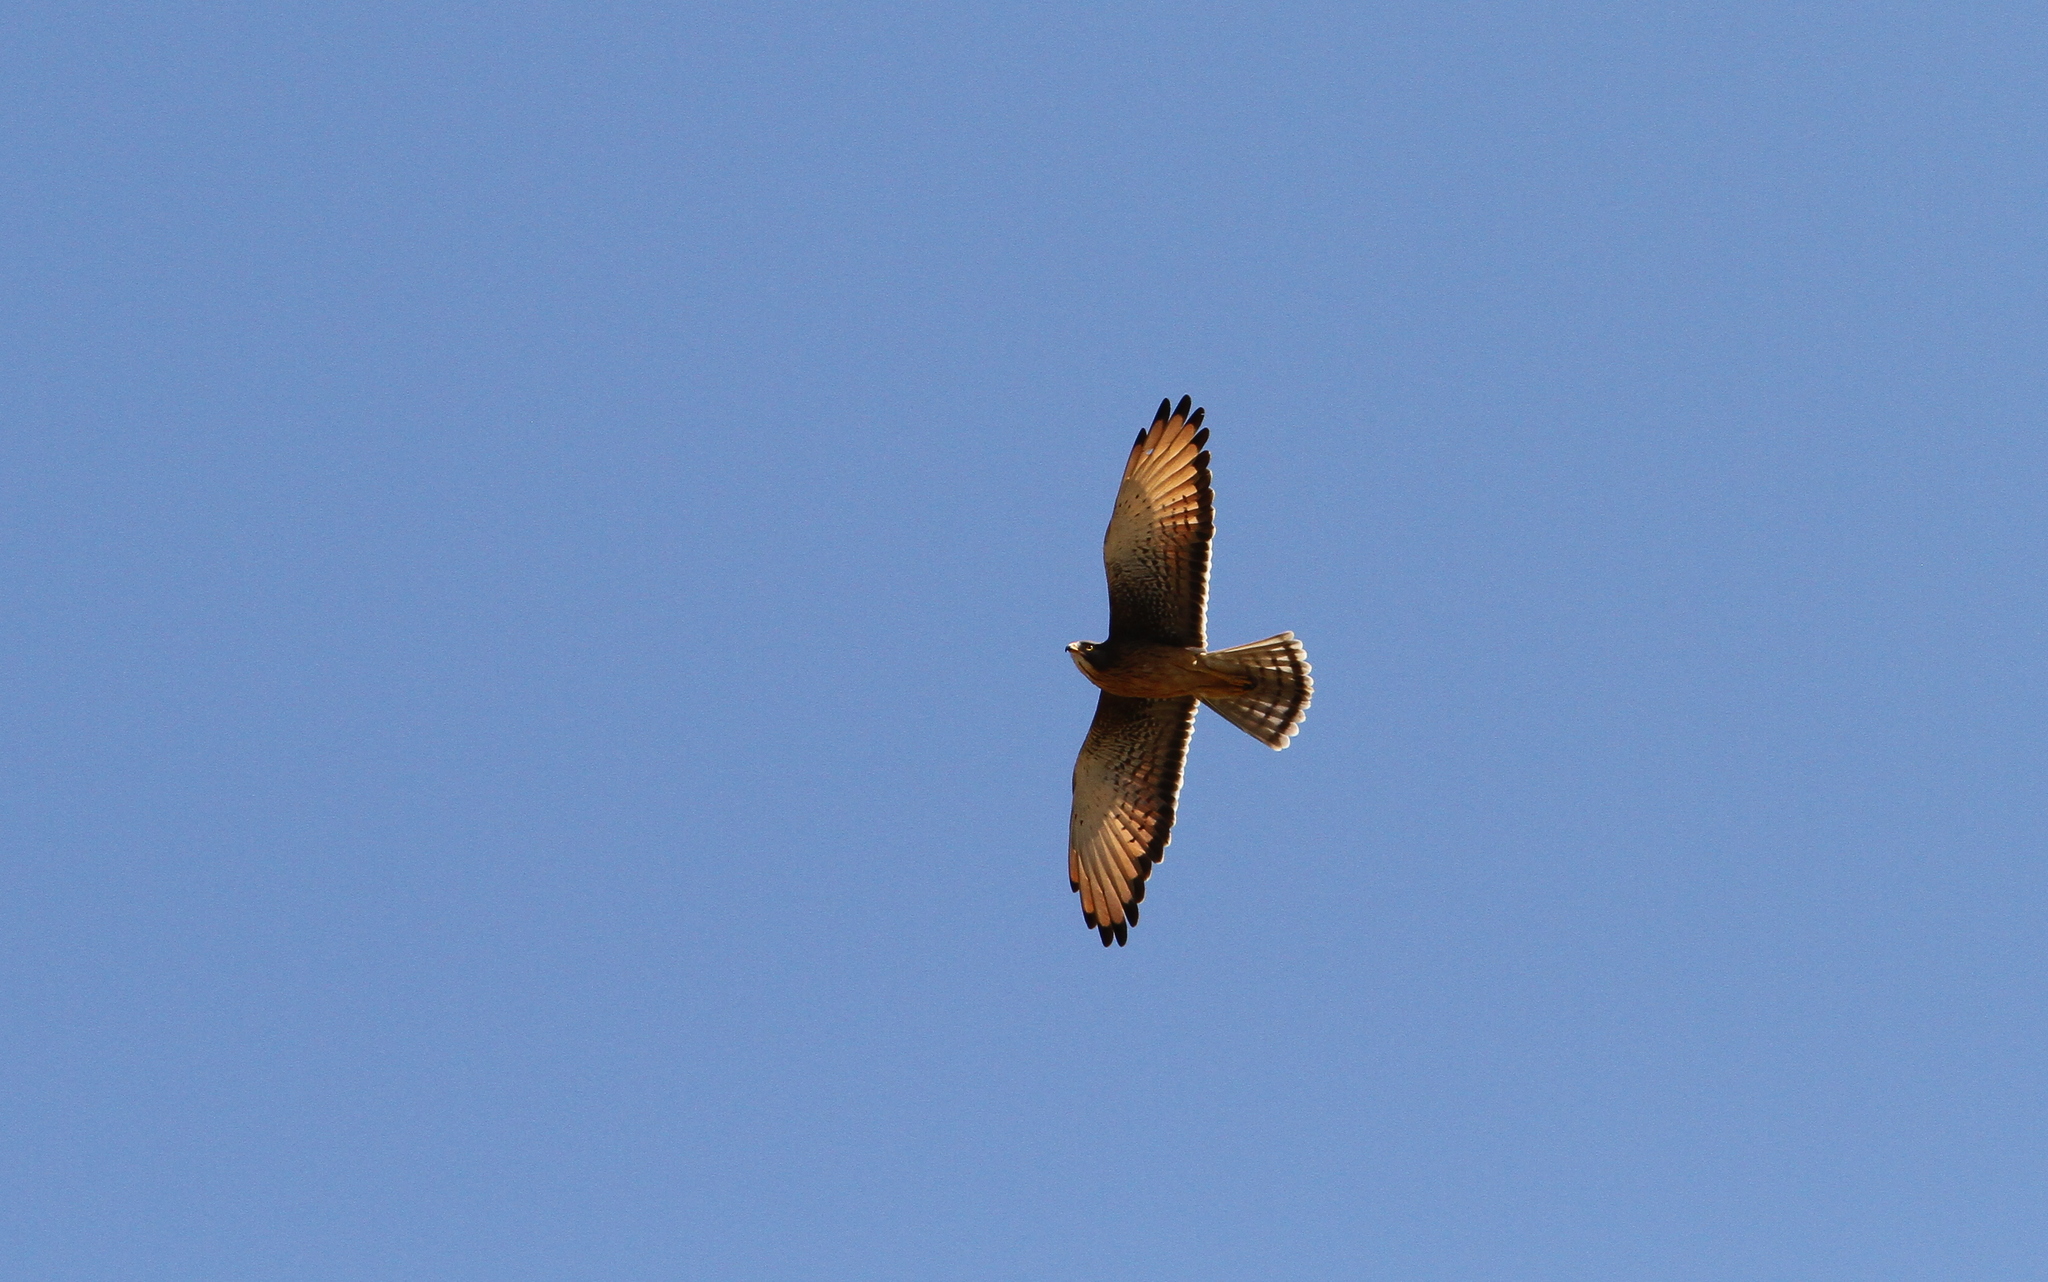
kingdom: Animalia
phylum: Chordata
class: Aves
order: Accipitriformes
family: Accipitridae
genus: Butastur
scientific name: Butastur rufipennis
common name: Grasshopper buzzard
